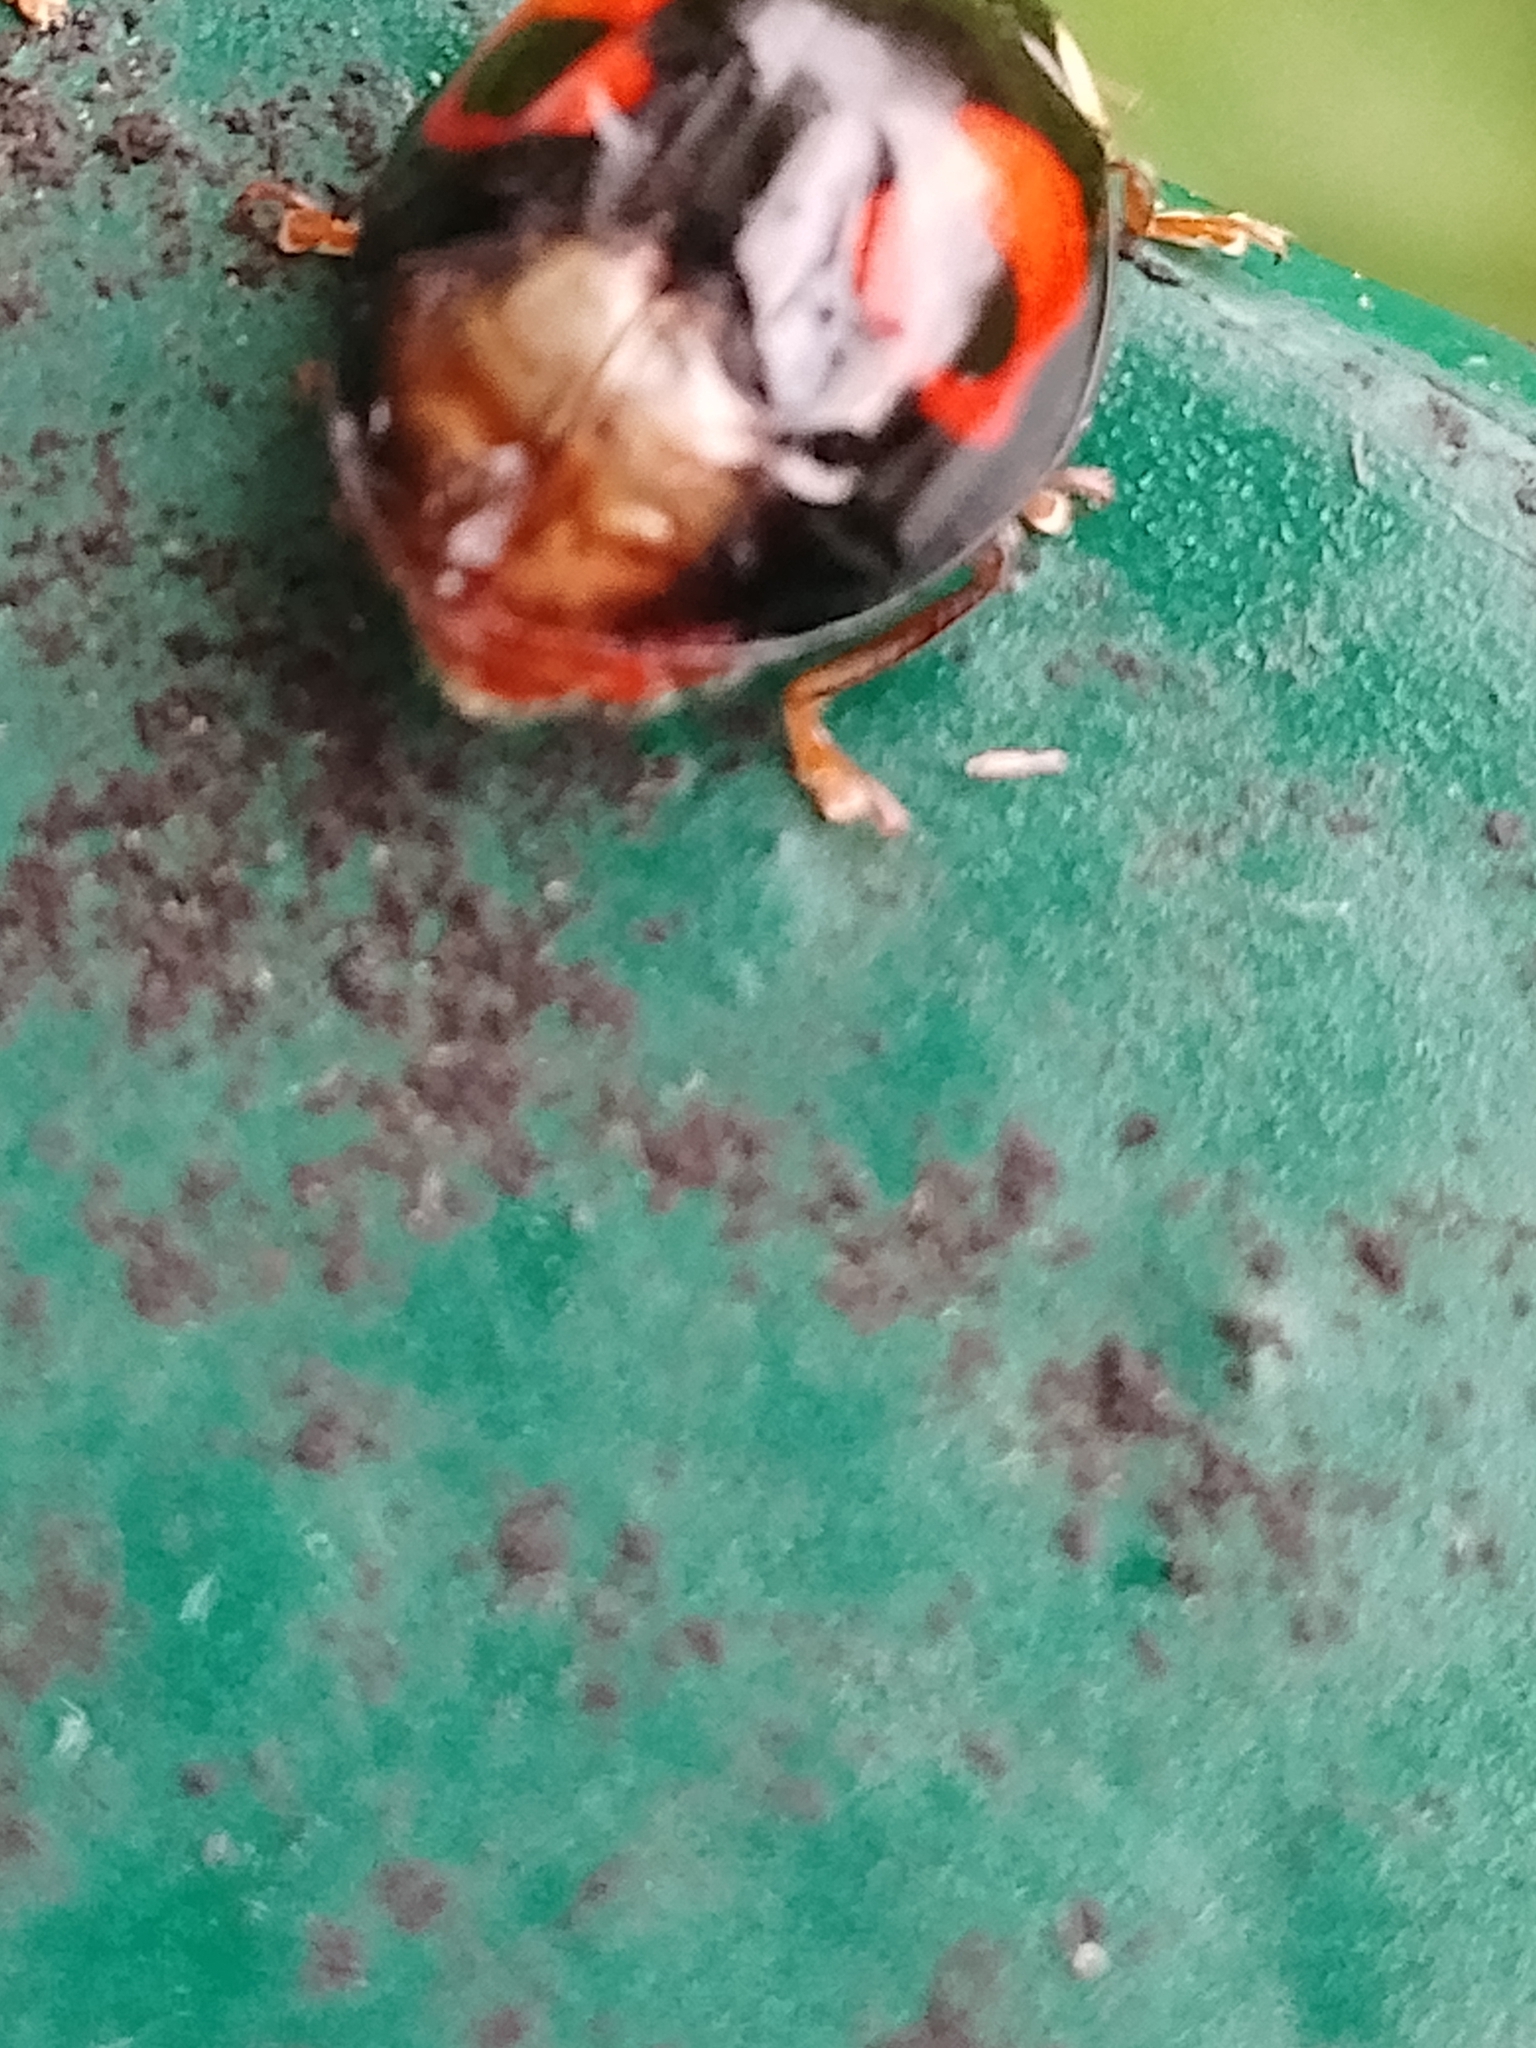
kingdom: Animalia
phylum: Arthropoda
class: Insecta
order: Coleoptera
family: Coccinellidae
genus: Harmonia
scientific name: Harmonia axyridis
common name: Harlequin ladybird
